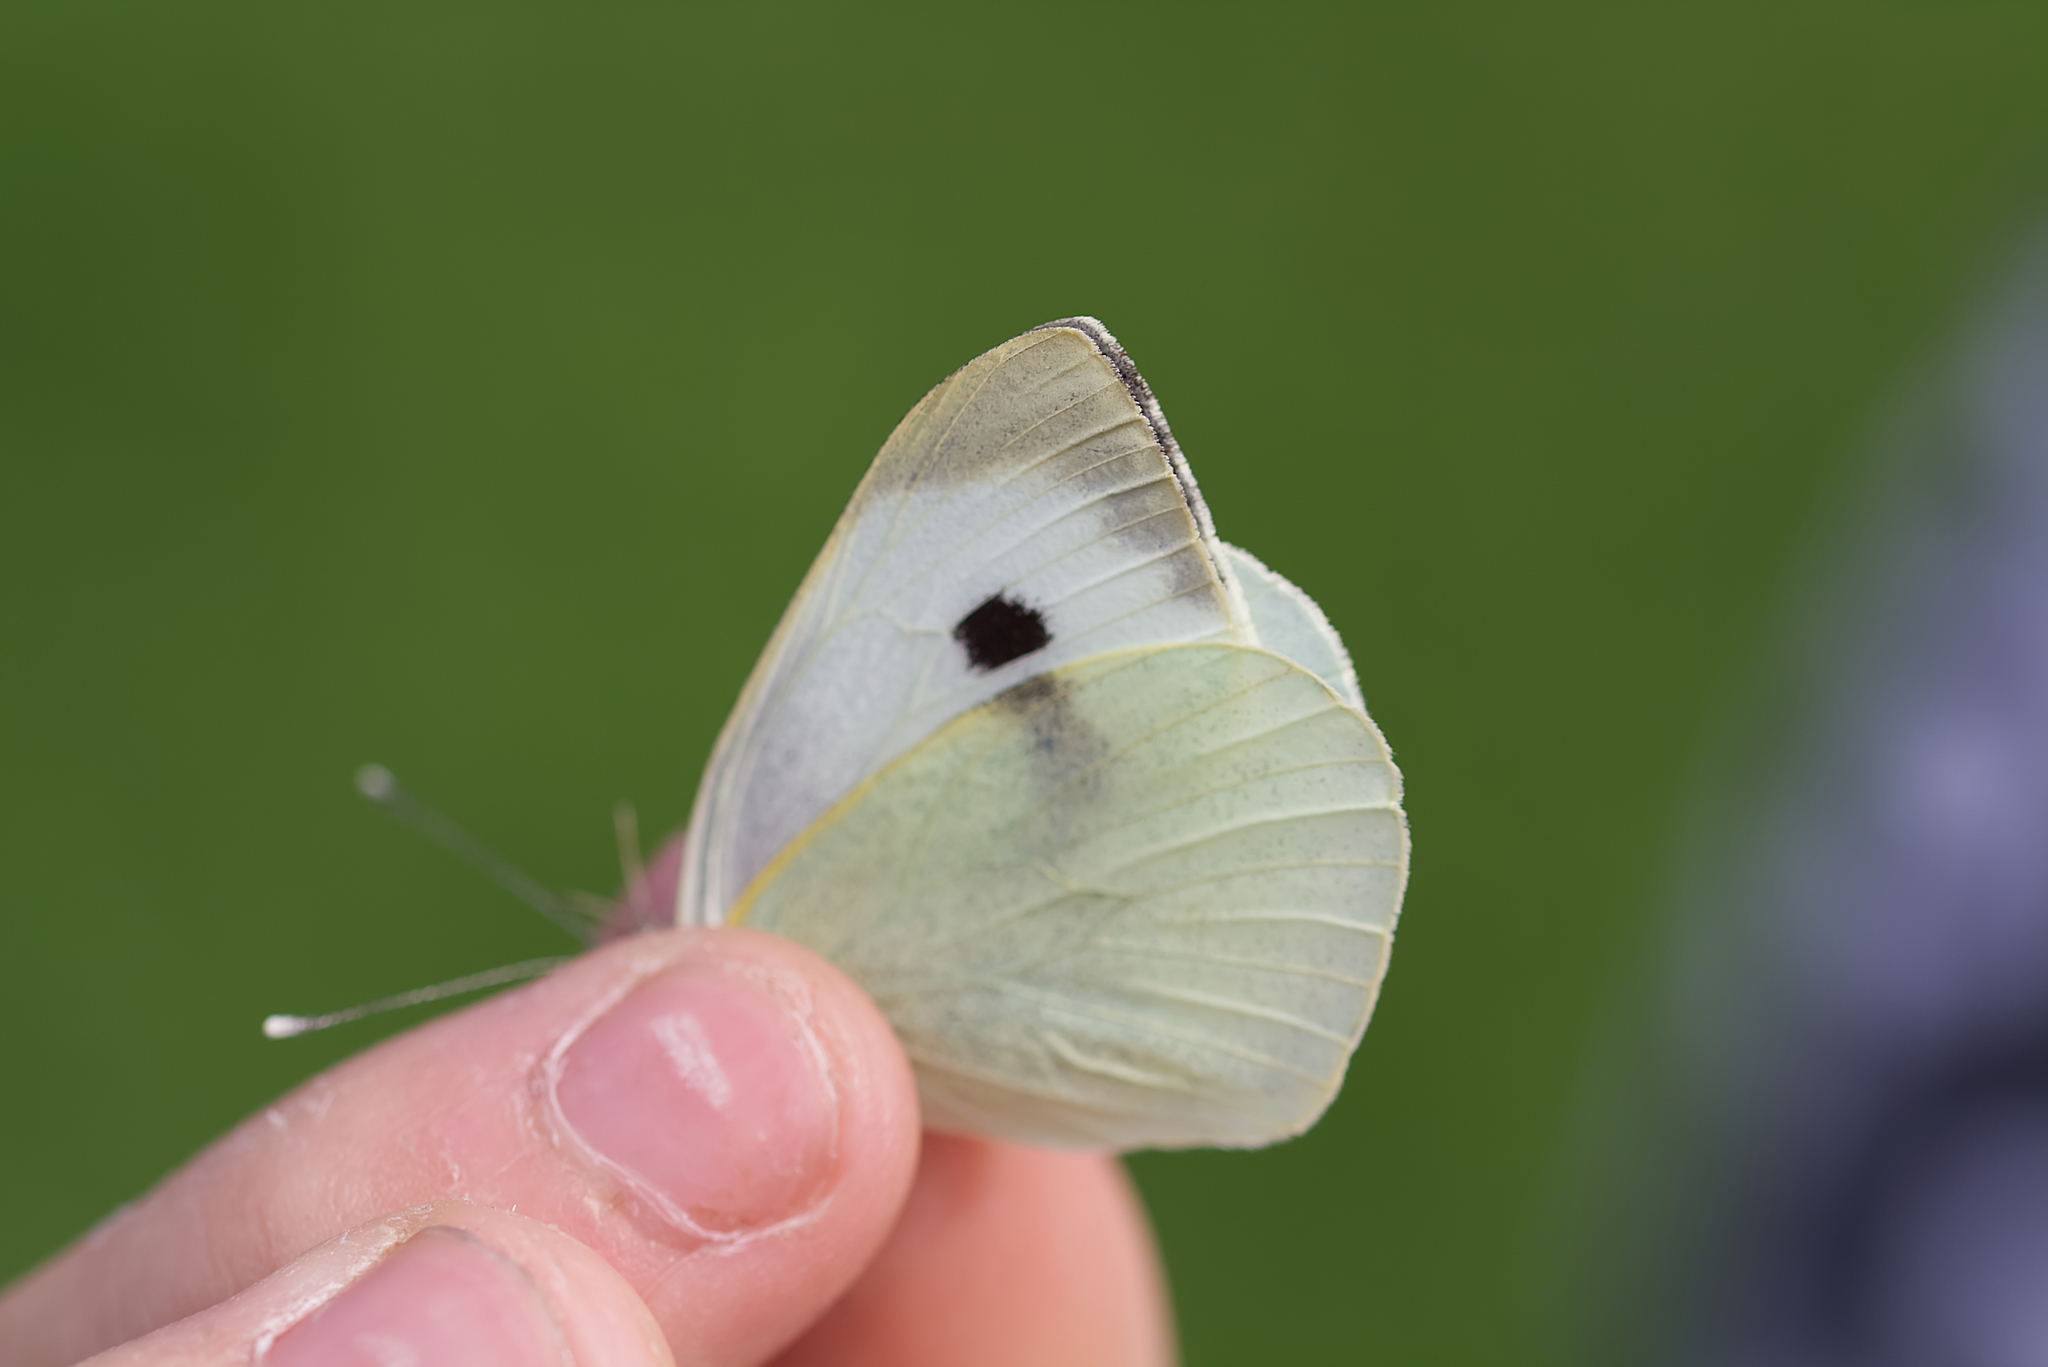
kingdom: Animalia
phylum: Arthropoda
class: Insecta
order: Lepidoptera
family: Pieridae
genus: Pieris
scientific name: Pieris brassicae
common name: Large white
